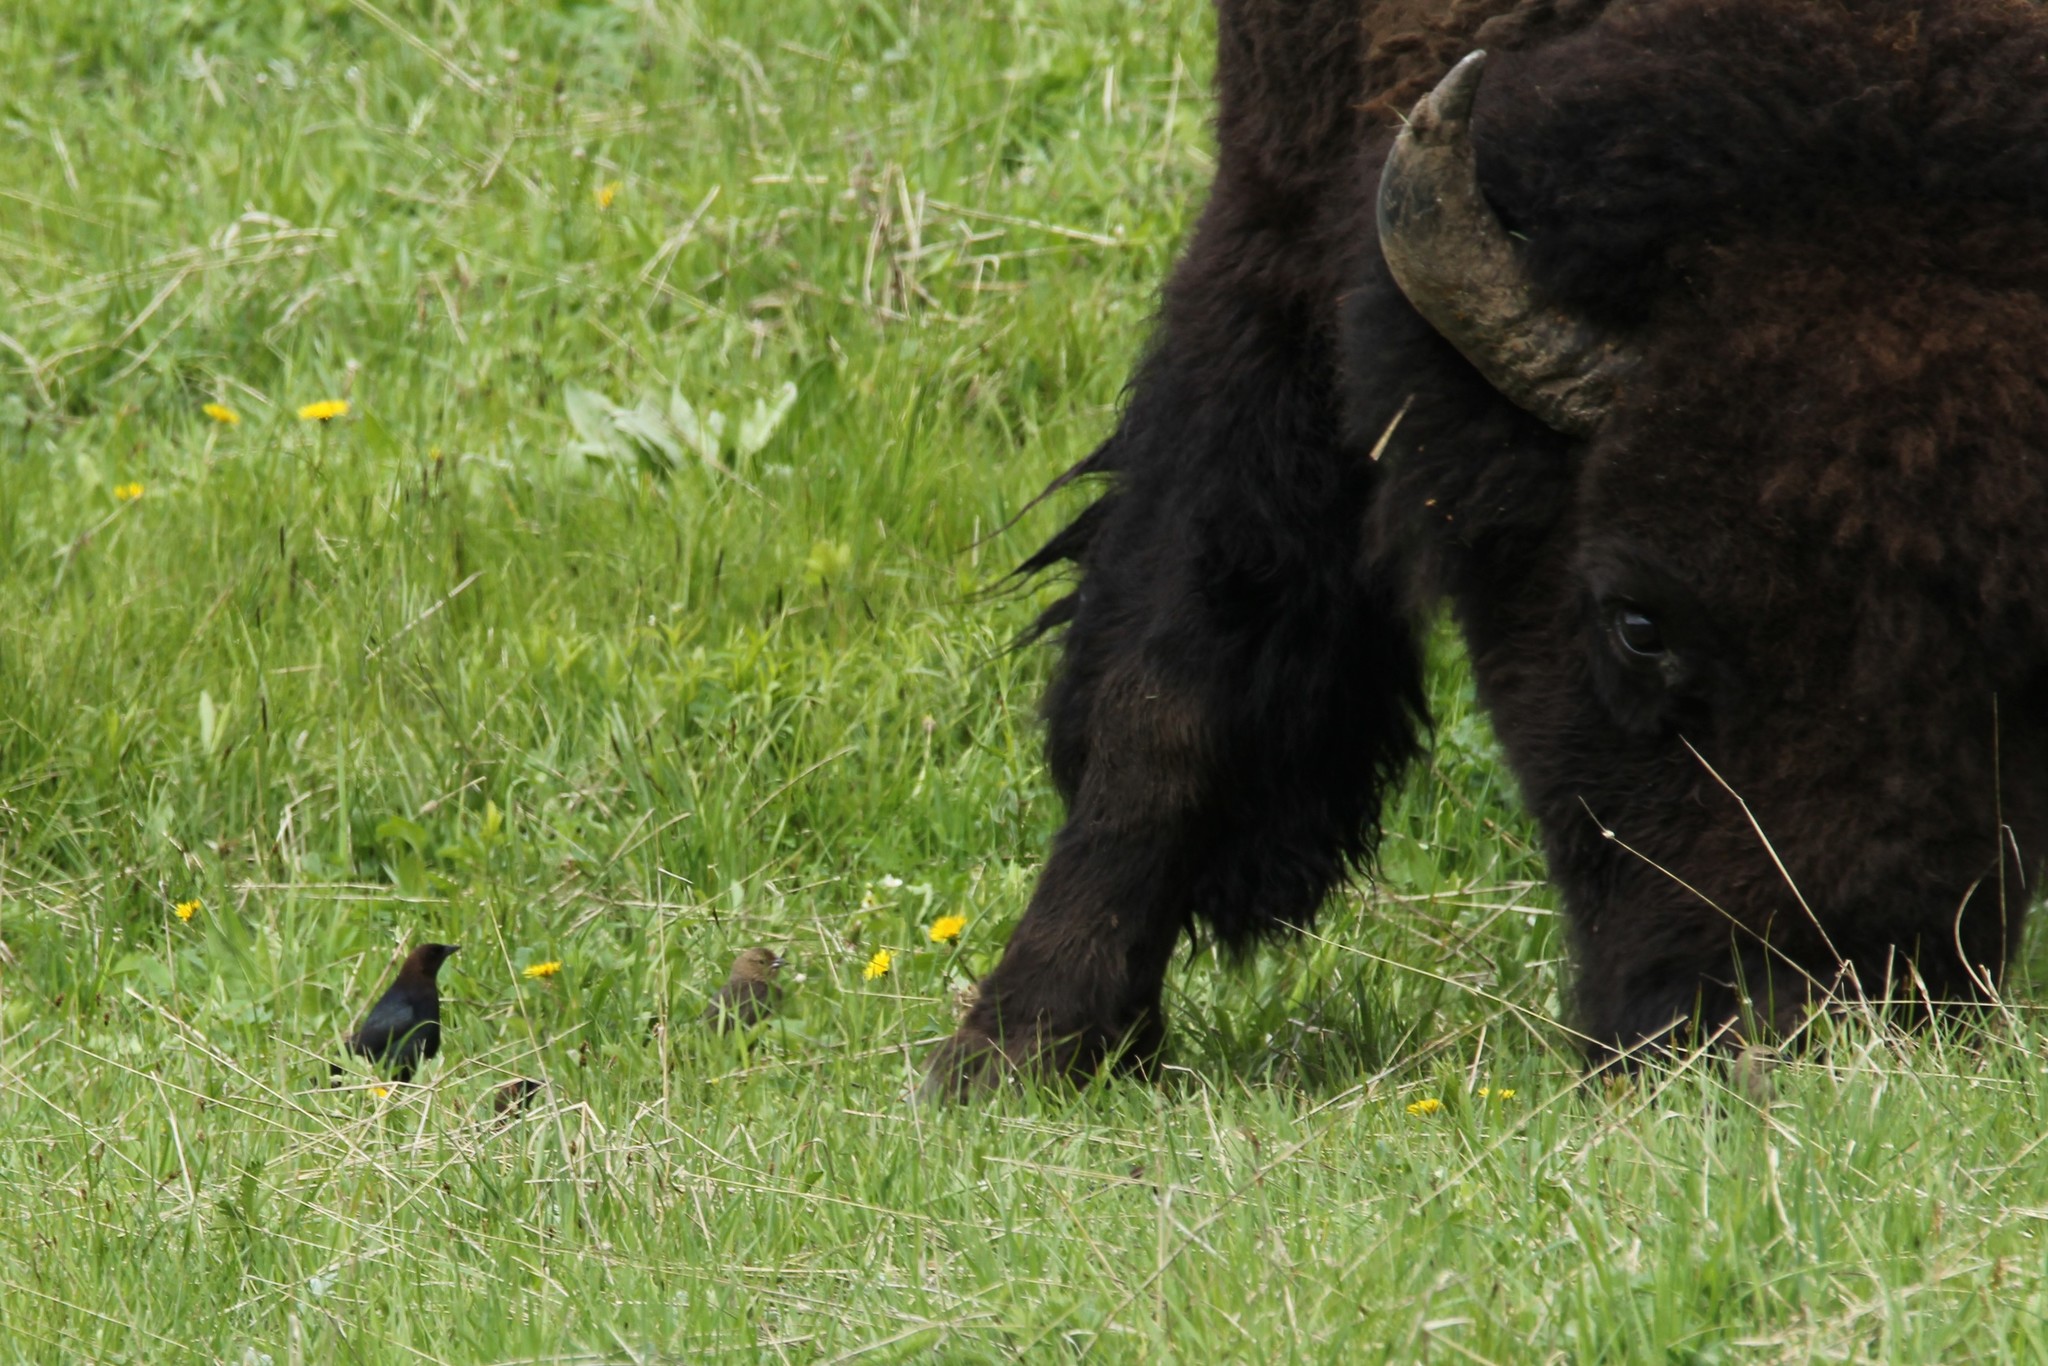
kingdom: Animalia
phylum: Chordata
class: Aves
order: Passeriformes
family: Icteridae
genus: Molothrus
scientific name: Molothrus ater
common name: Brown-headed cowbird
